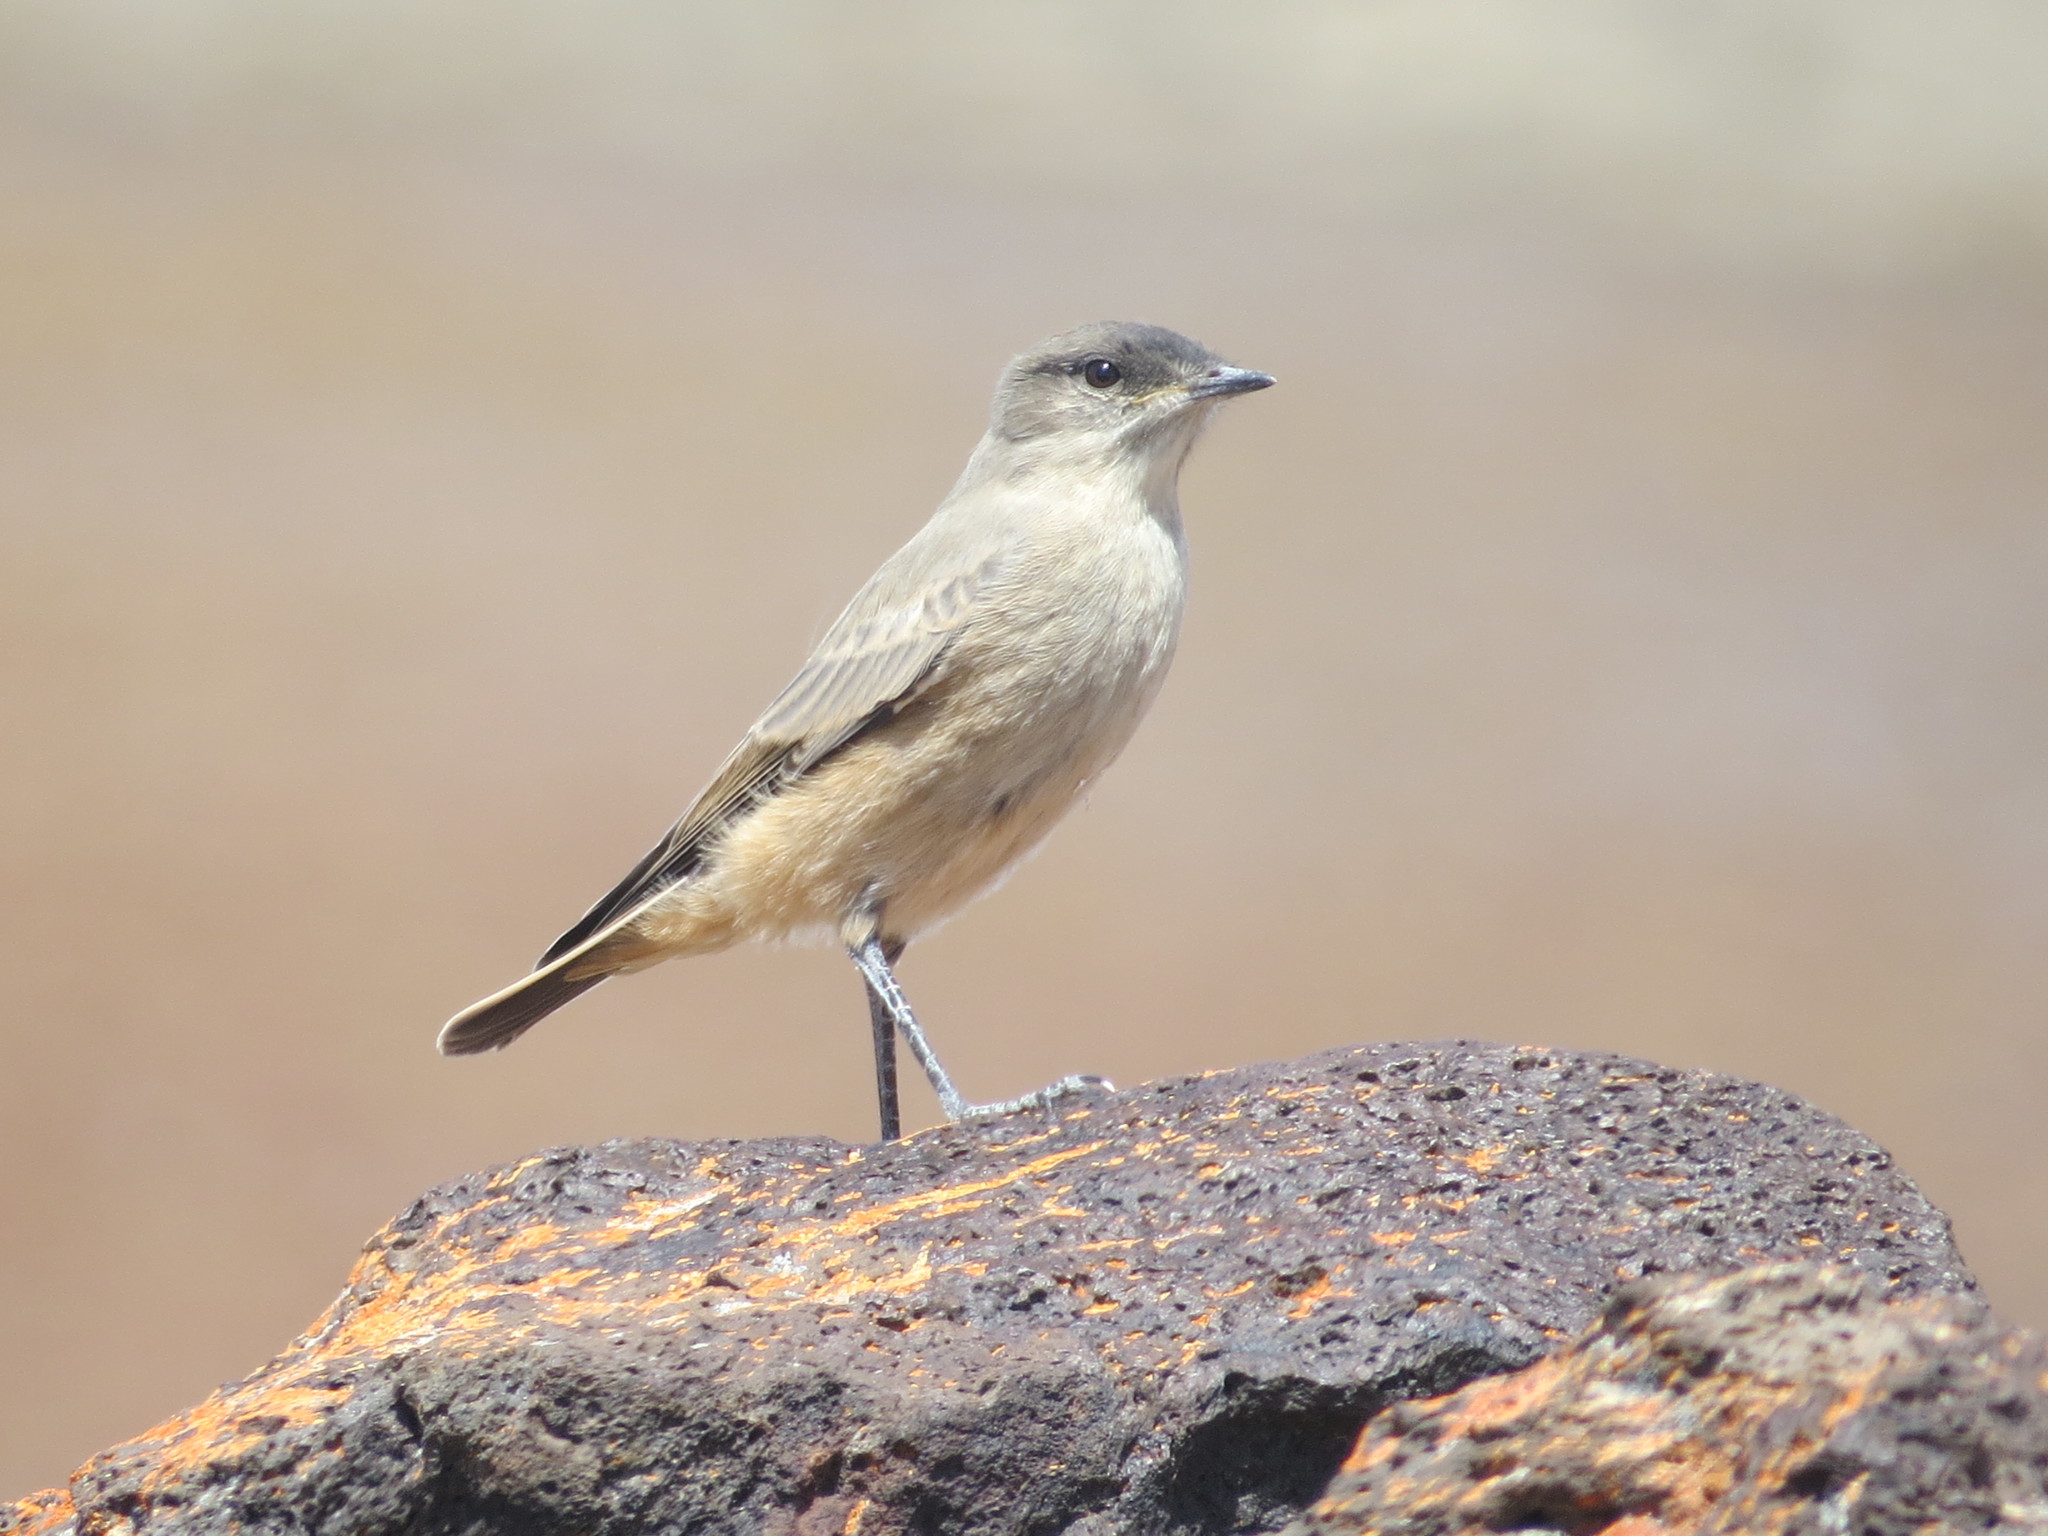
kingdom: Animalia
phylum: Chordata
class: Aves
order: Passeriformes
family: Tyrannidae
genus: Muscisaxicola
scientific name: Muscisaxicola capistratus
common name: Cinnamon-bellied ground tyrant
